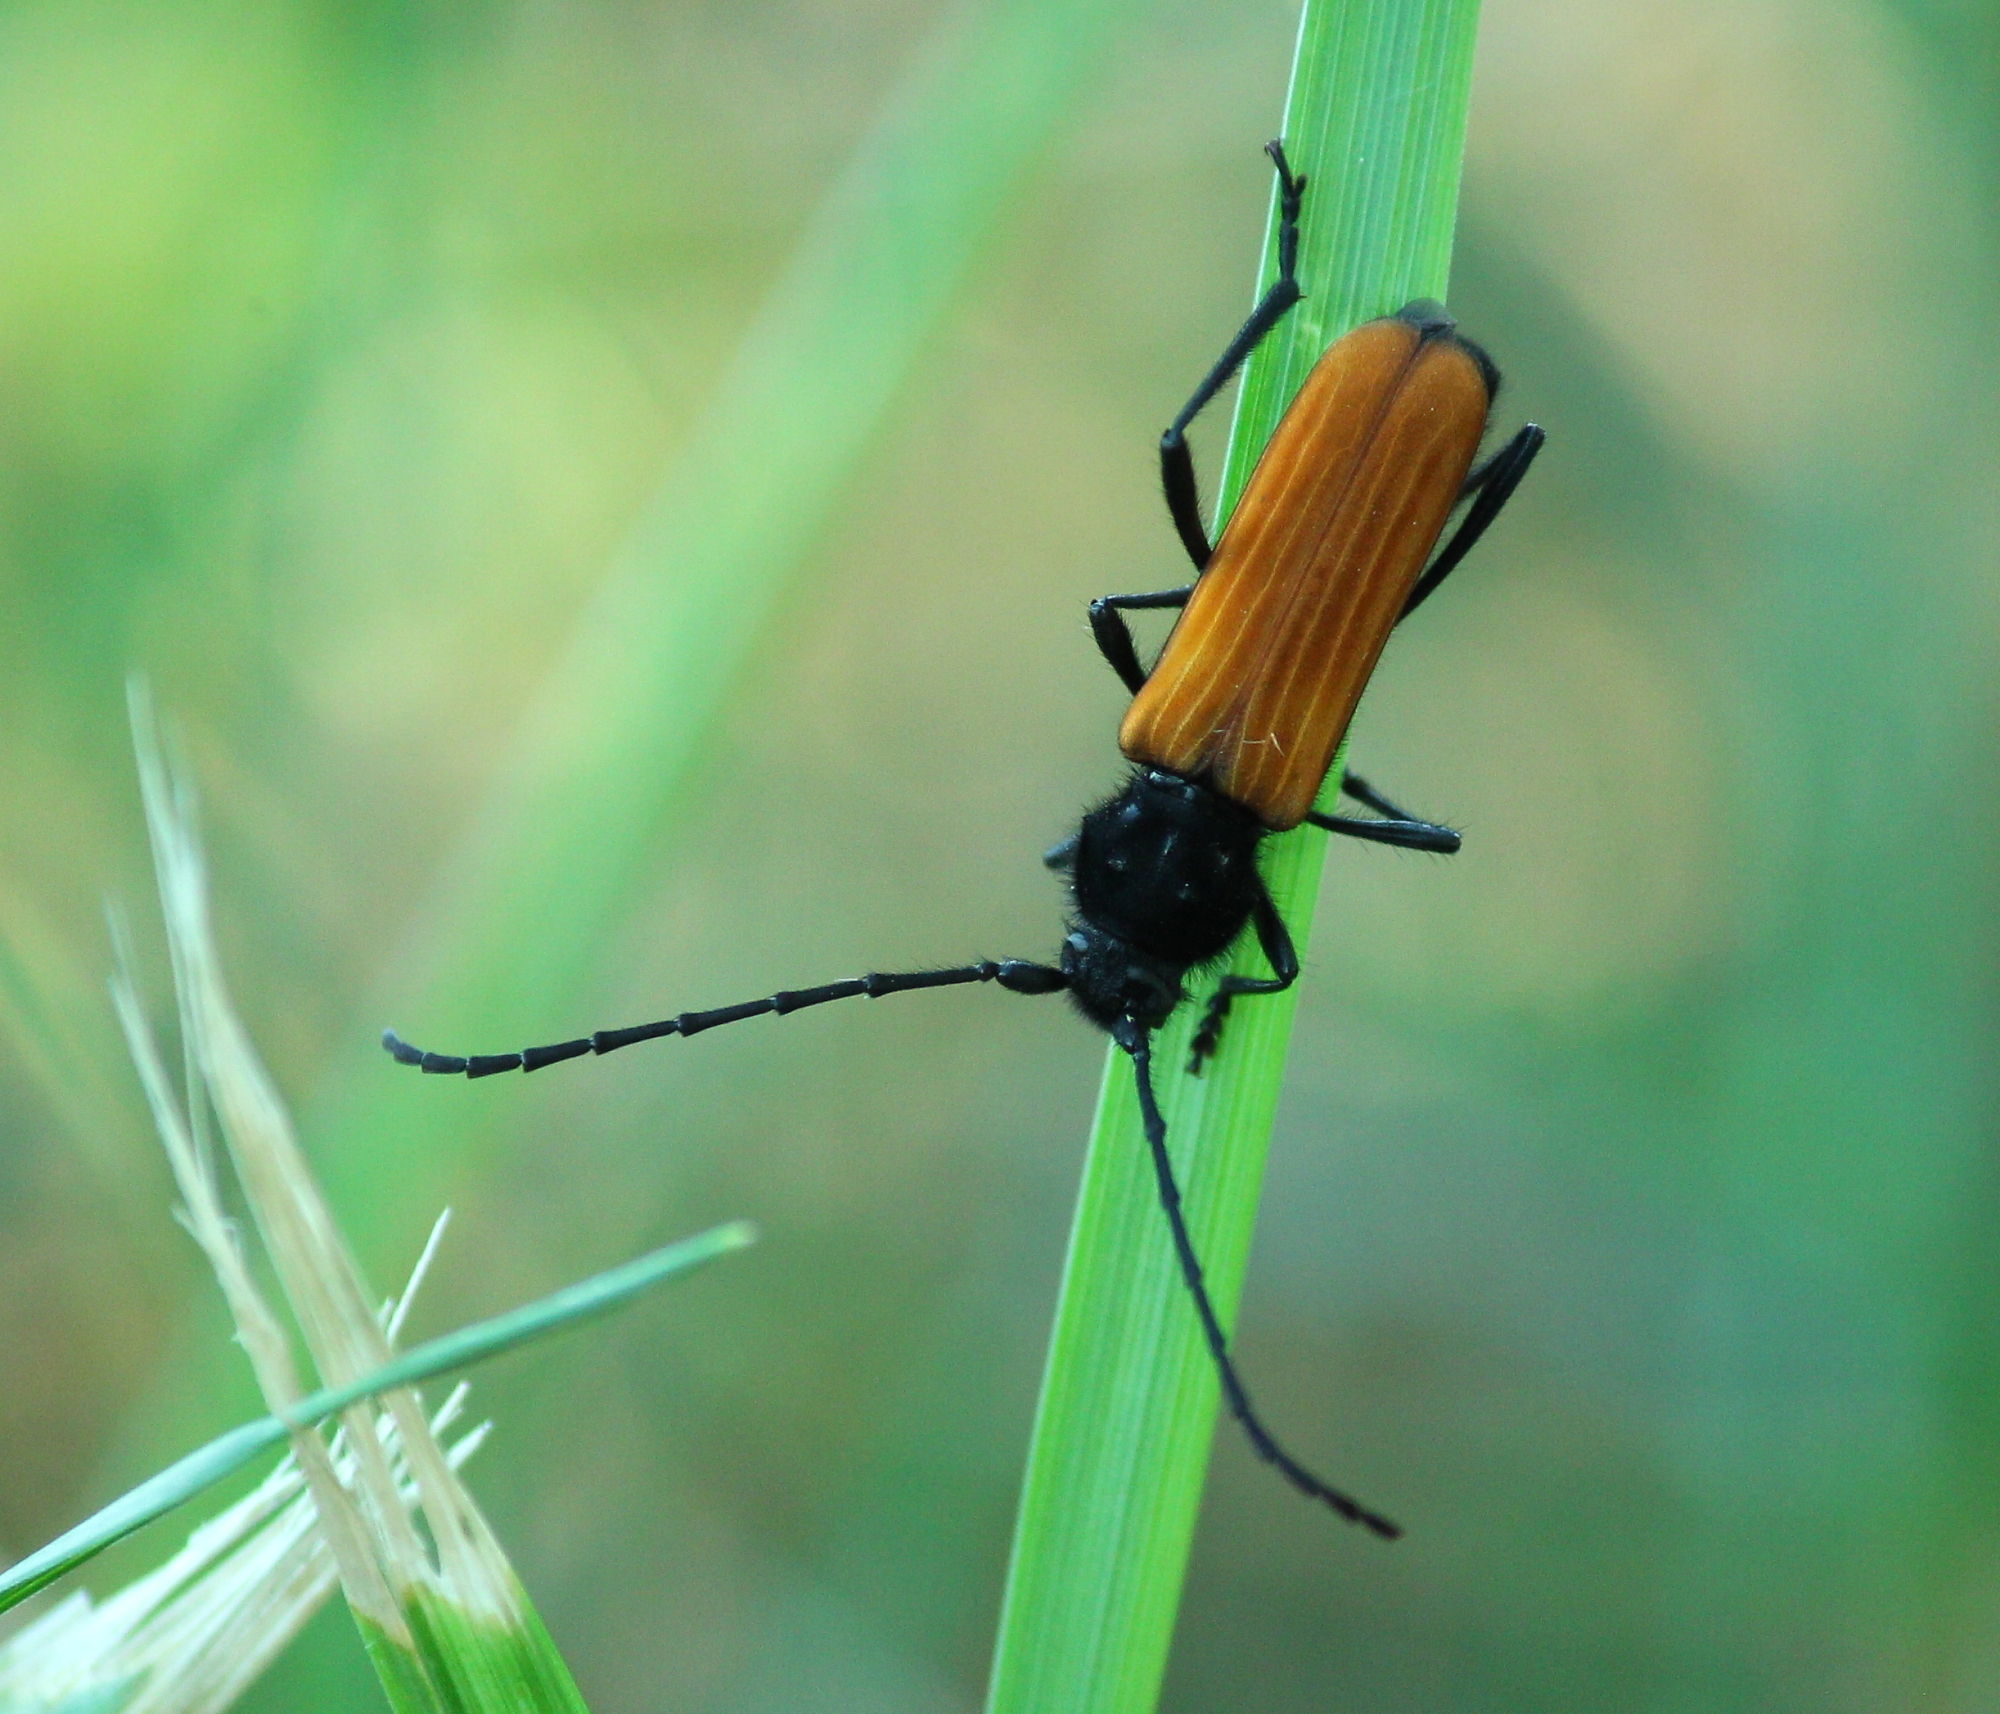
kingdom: Animalia
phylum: Arthropoda
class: Insecta
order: Coleoptera
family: Cerambycidae
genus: Tragidion
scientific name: Tragidion coquus
